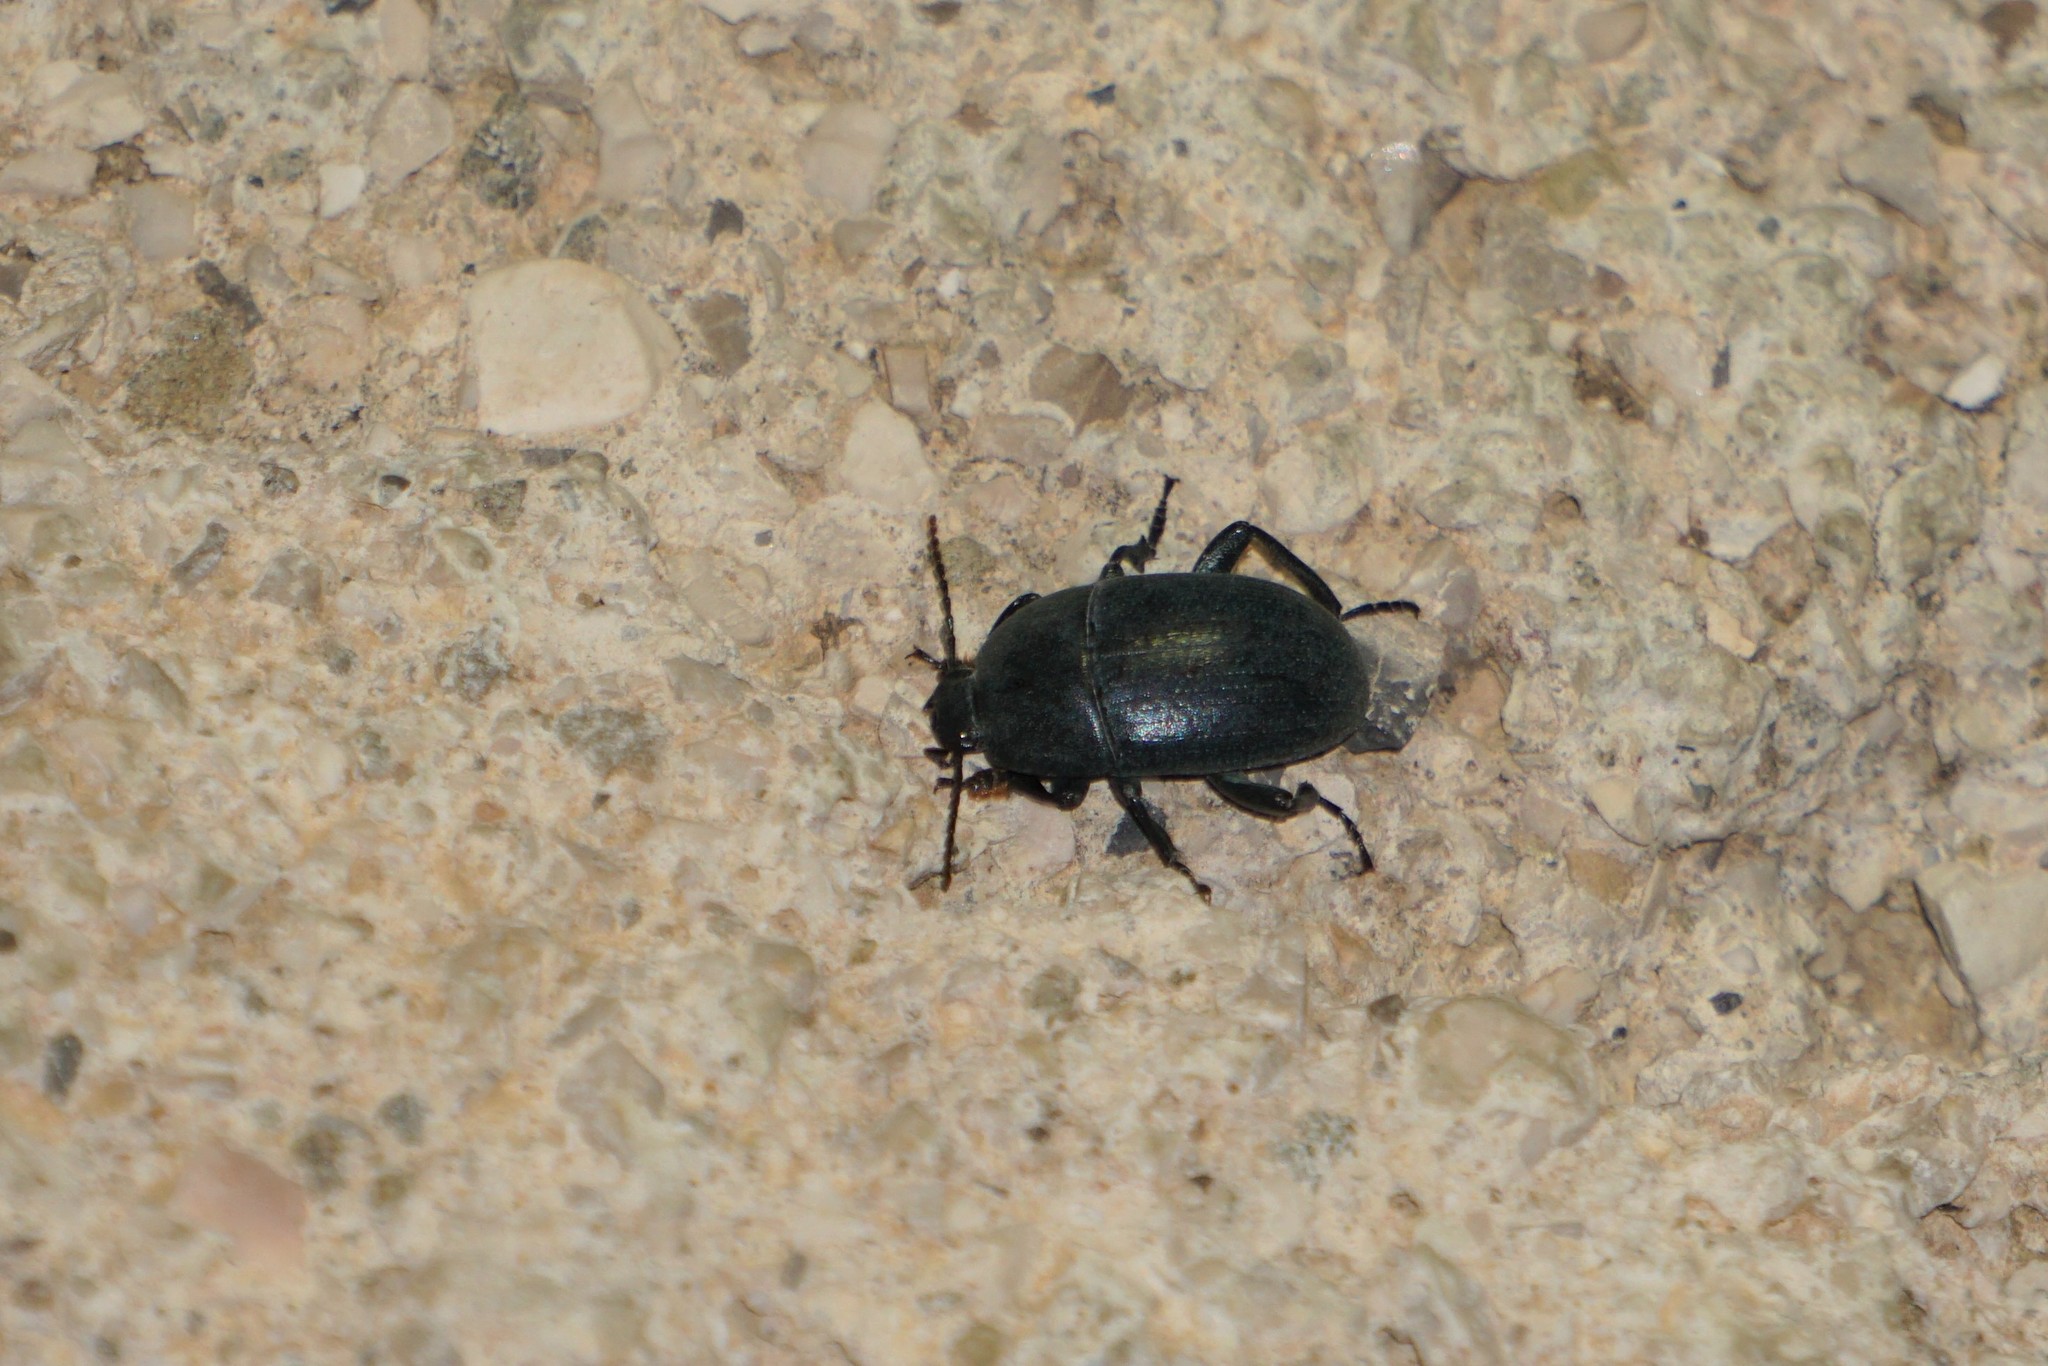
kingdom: Animalia
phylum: Arthropoda
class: Insecta
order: Coleoptera
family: Tenebrionidae
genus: Pedinus
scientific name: Pedinus femoralis
